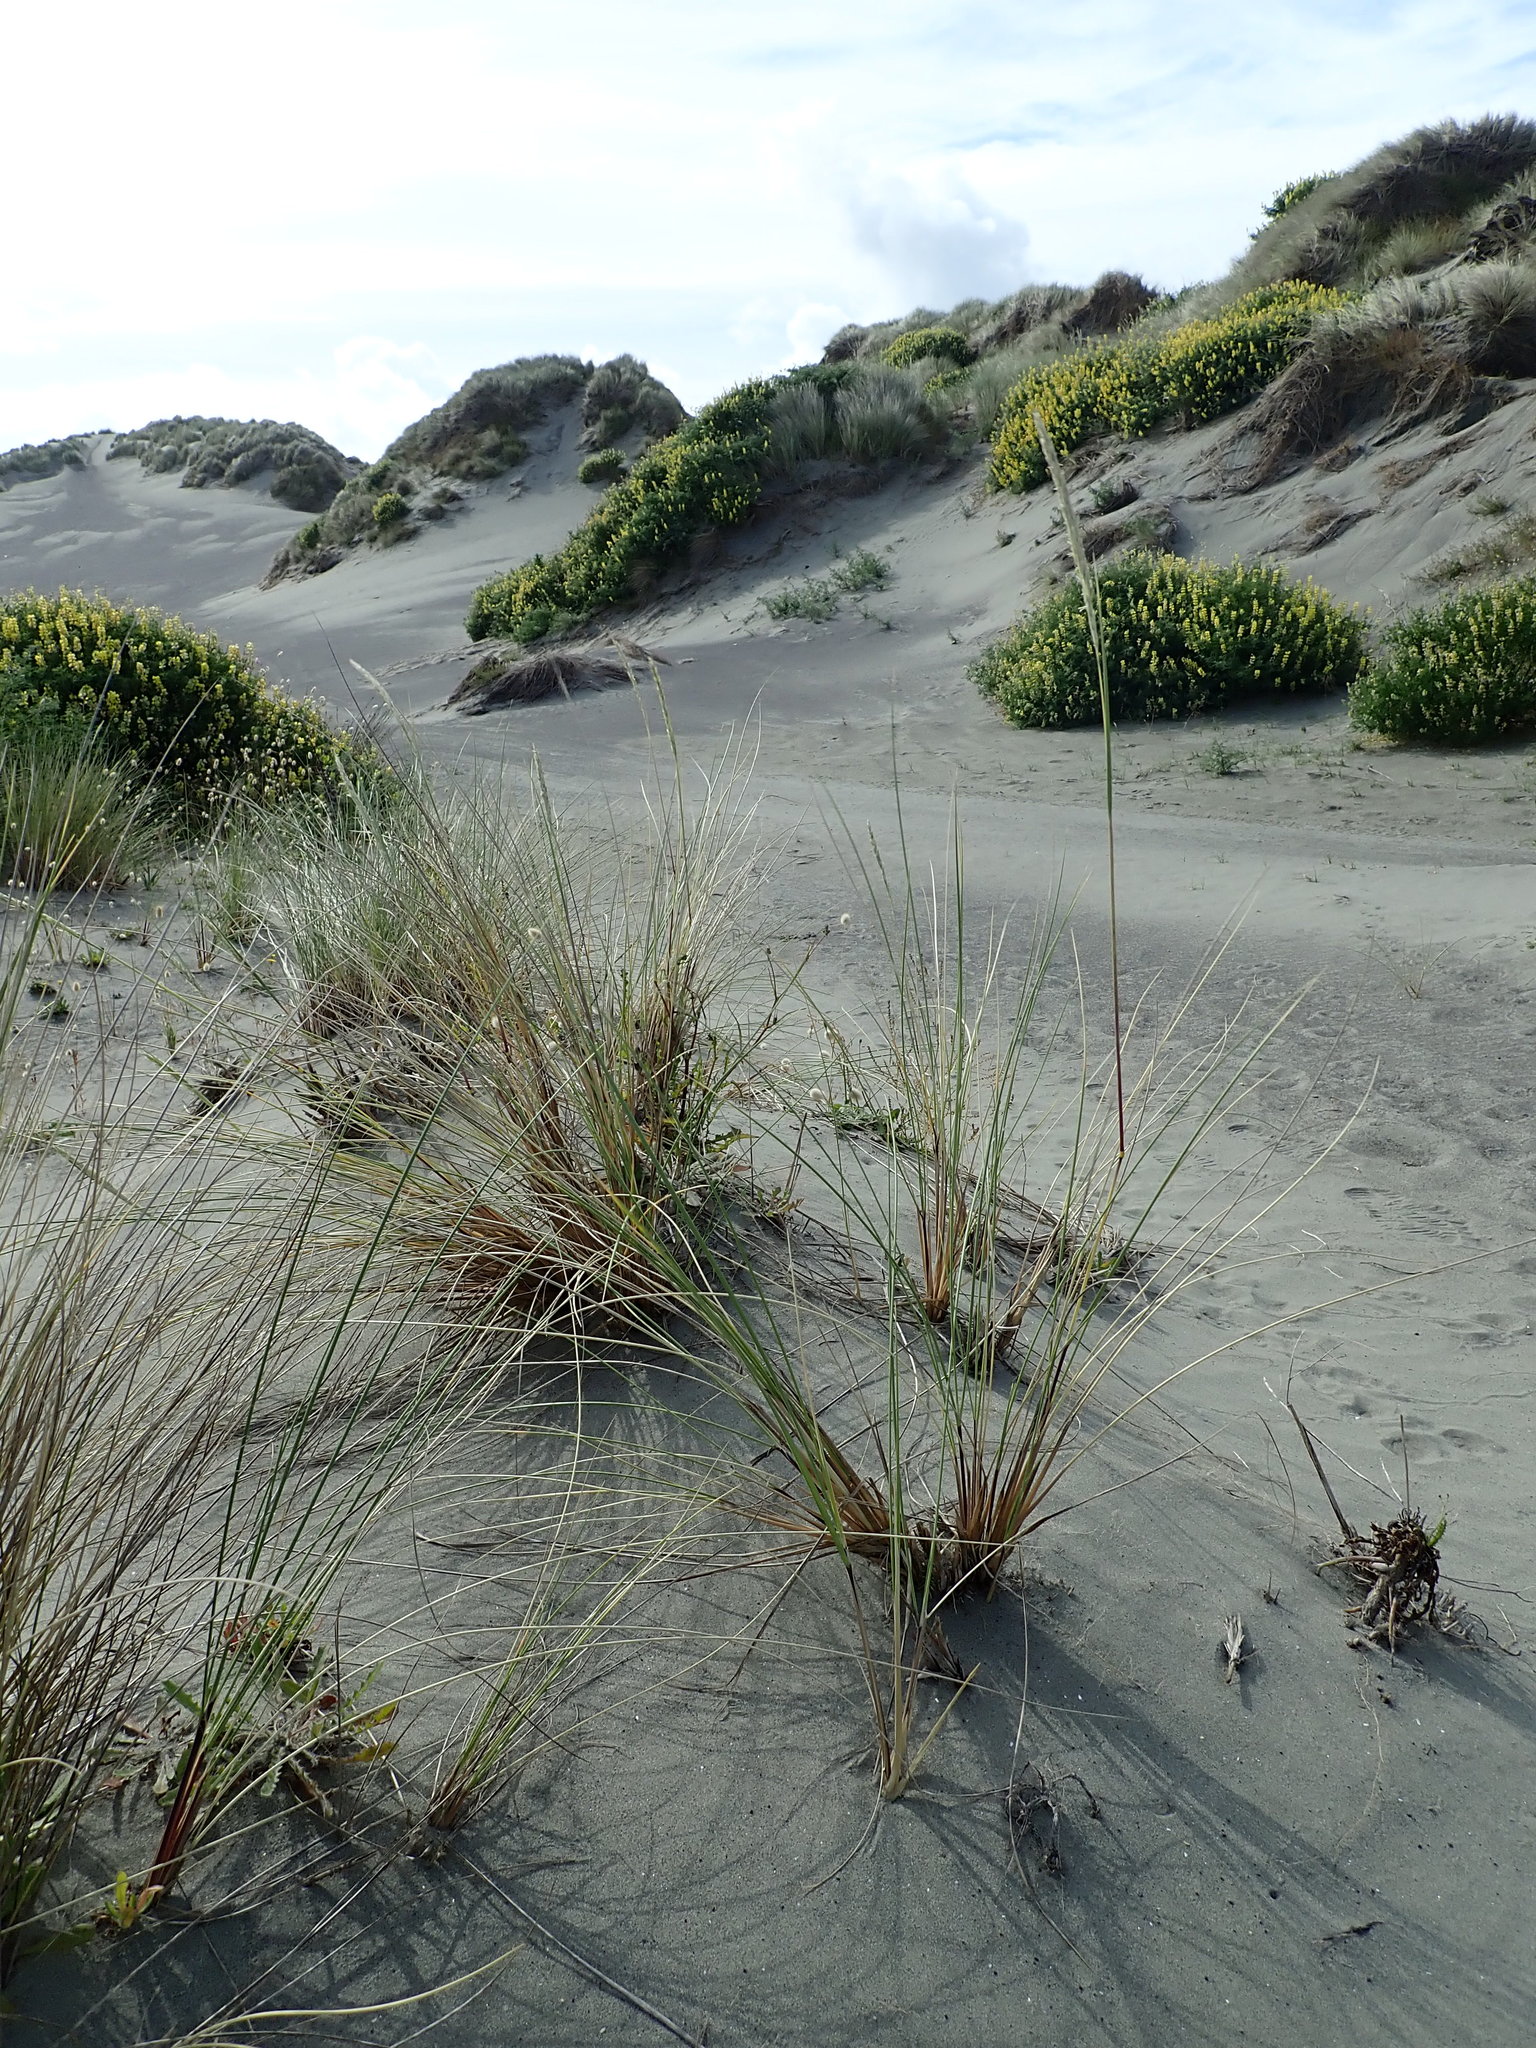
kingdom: Plantae
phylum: Tracheophyta
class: Liliopsida
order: Poales
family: Poaceae
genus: Calamagrostis
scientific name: Calamagrostis arenaria
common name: European beachgrass
